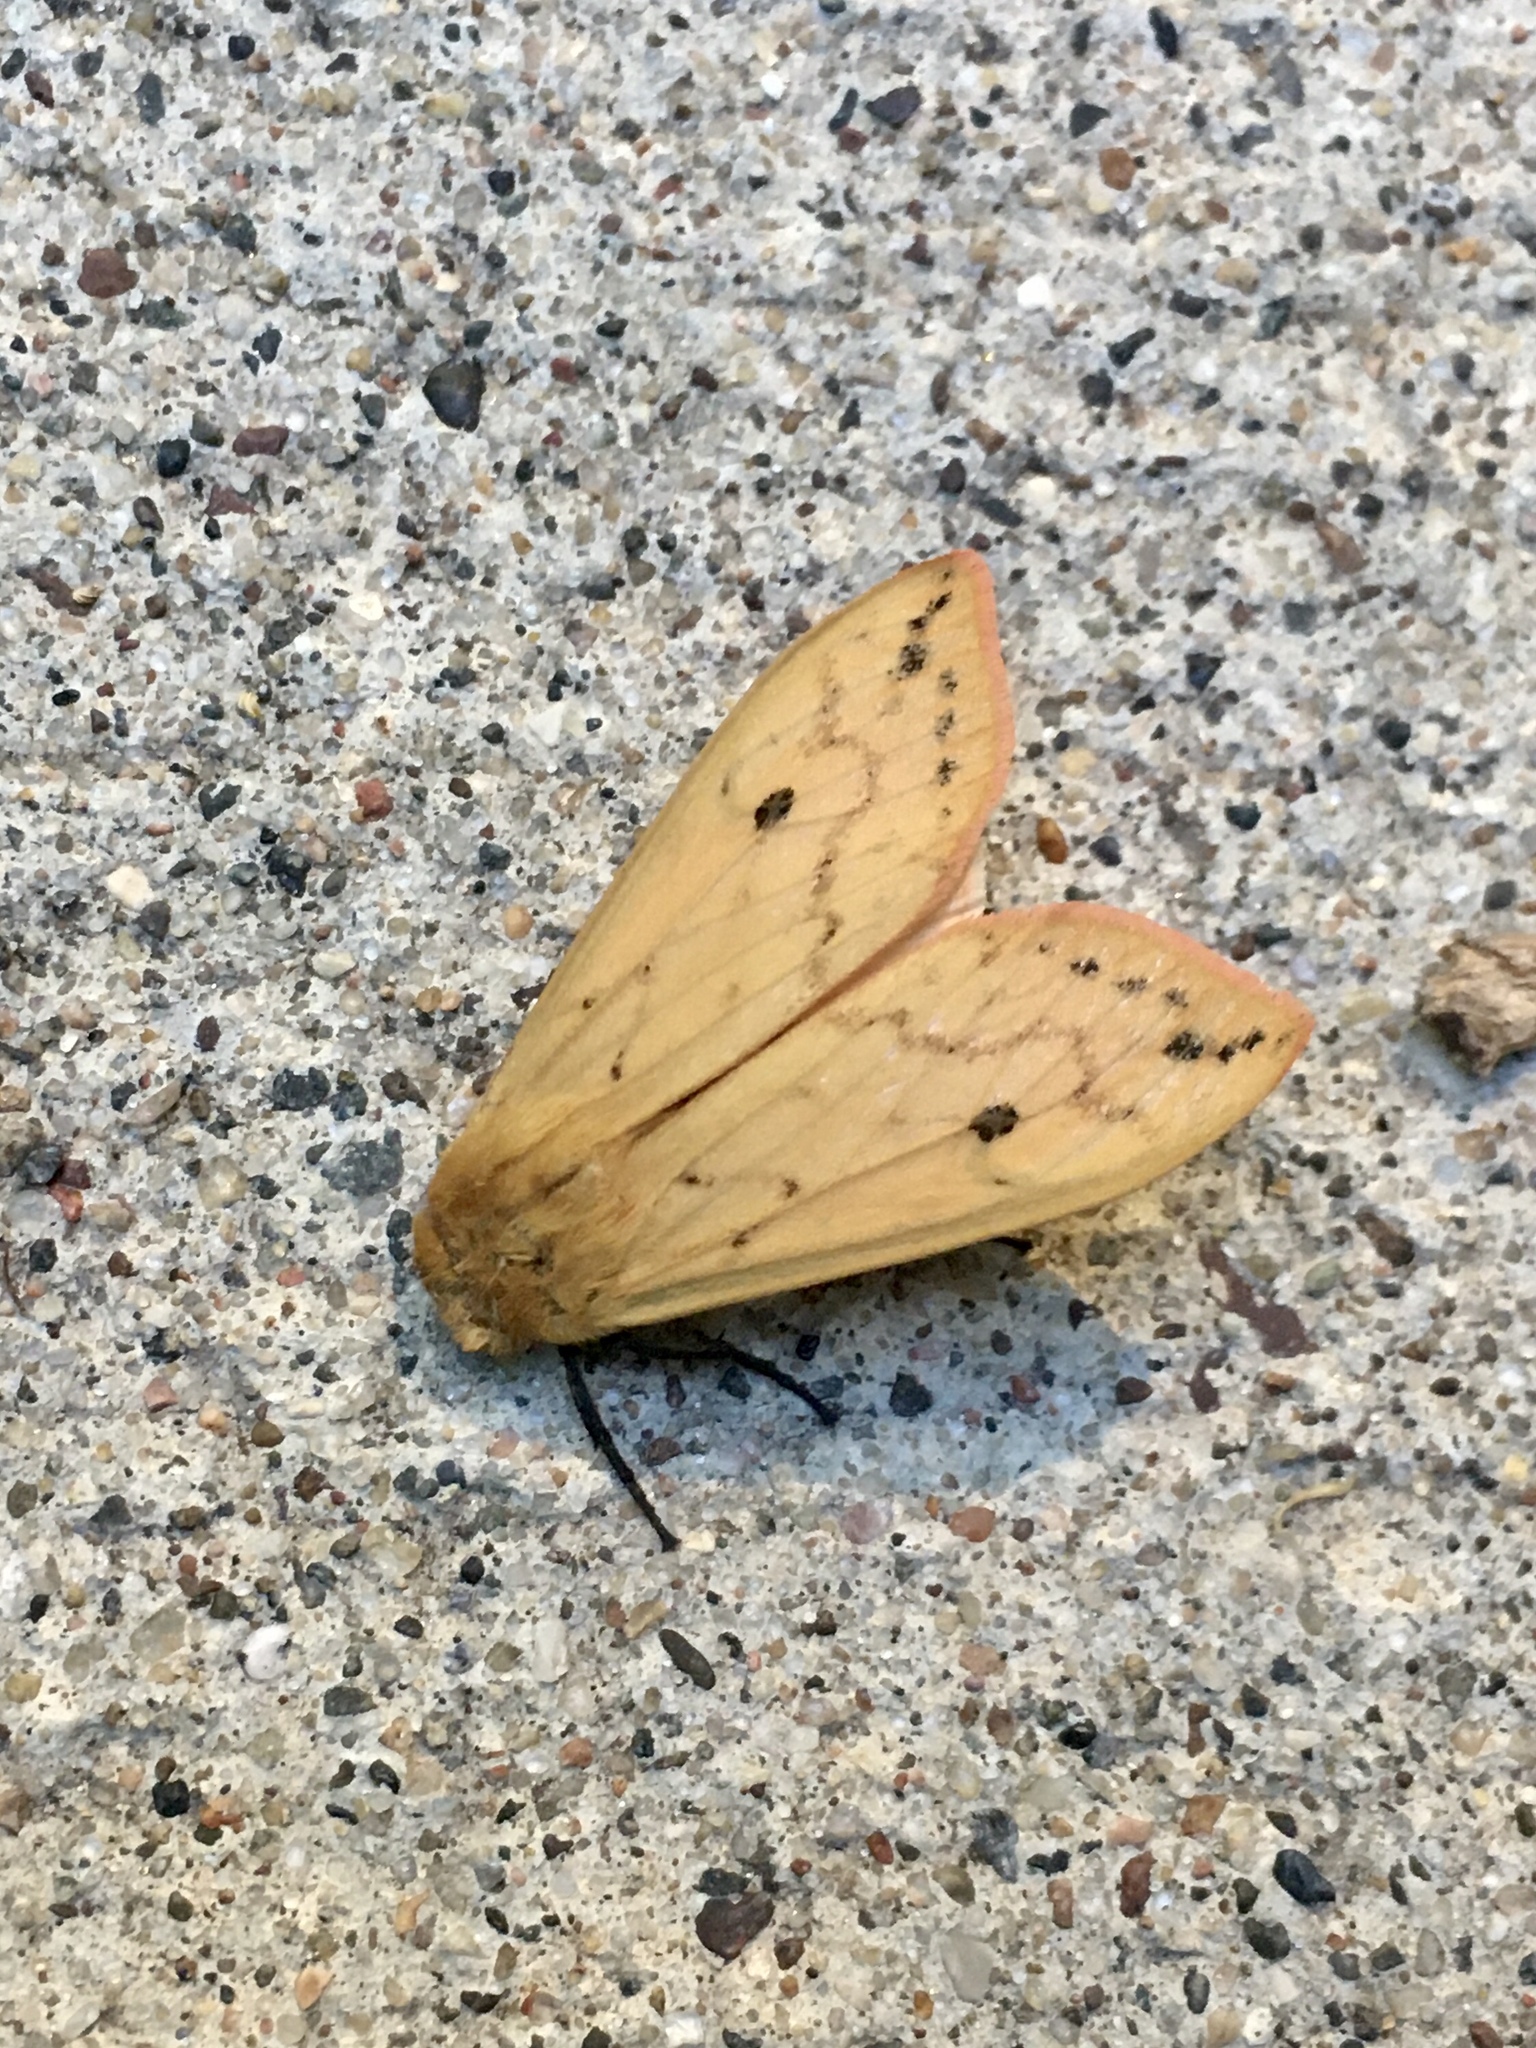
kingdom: Animalia
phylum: Arthropoda
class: Insecta
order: Lepidoptera
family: Erebidae
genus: Pyrrharctia
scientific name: Pyrrharctia isabella
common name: Isabella tiger moth
